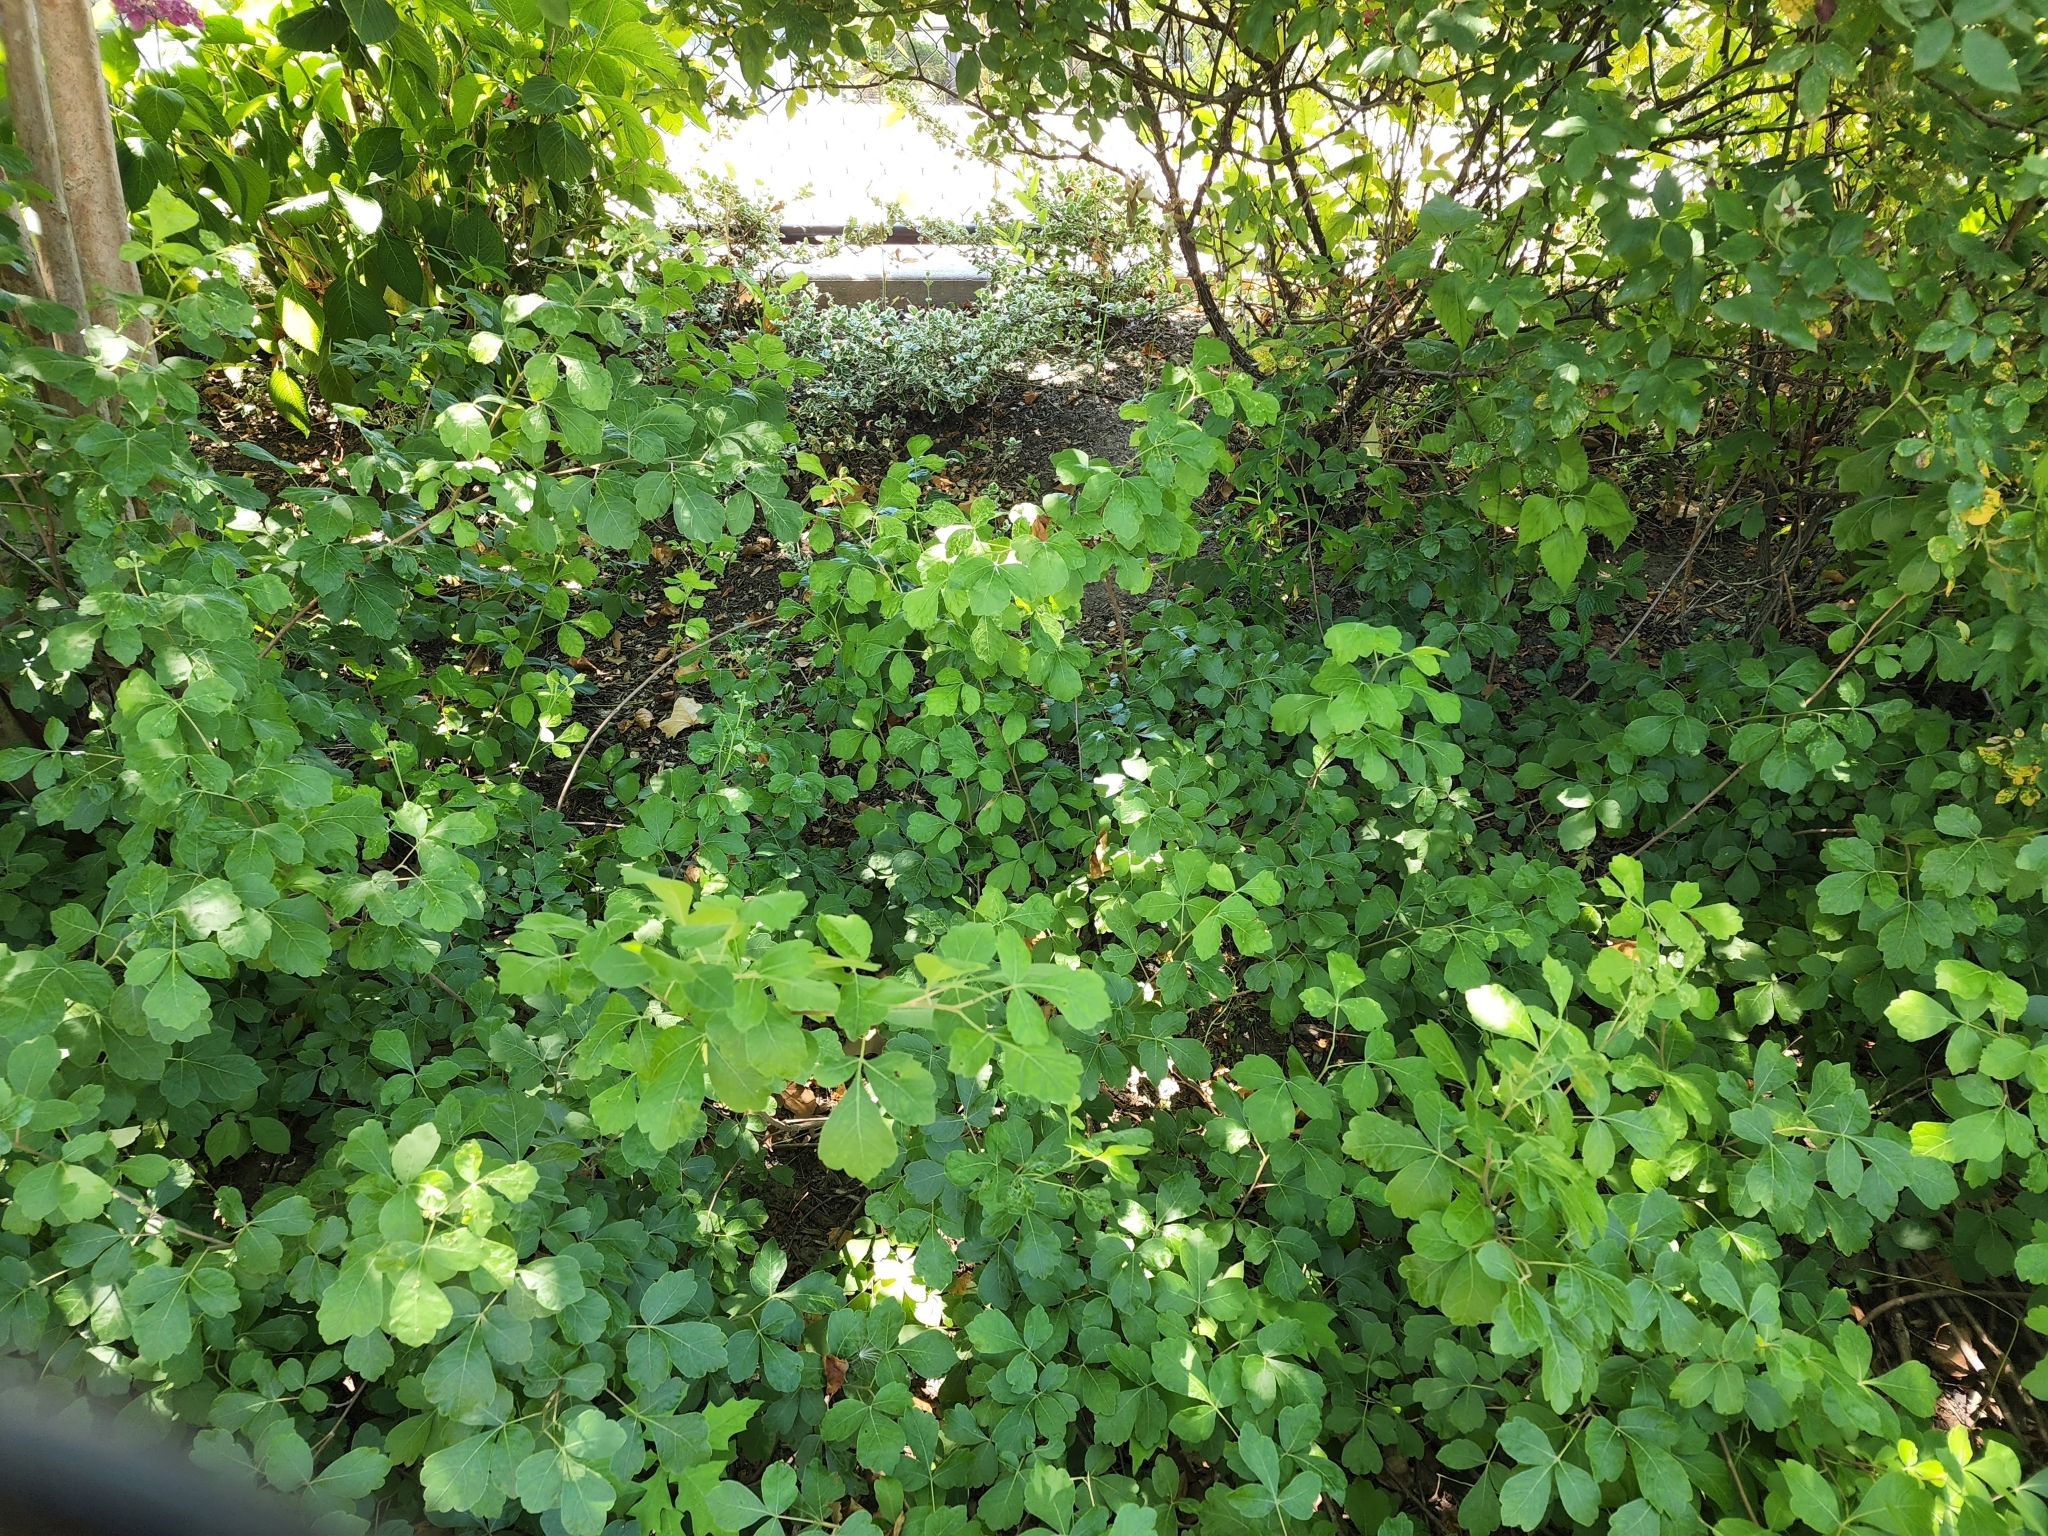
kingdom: Plantae
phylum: Tracheophyta
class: Magnoliopsida
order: Sapindales
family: Anacardiaceae
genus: Rhus
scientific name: Rhus aromatica
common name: Aromatic sumac
